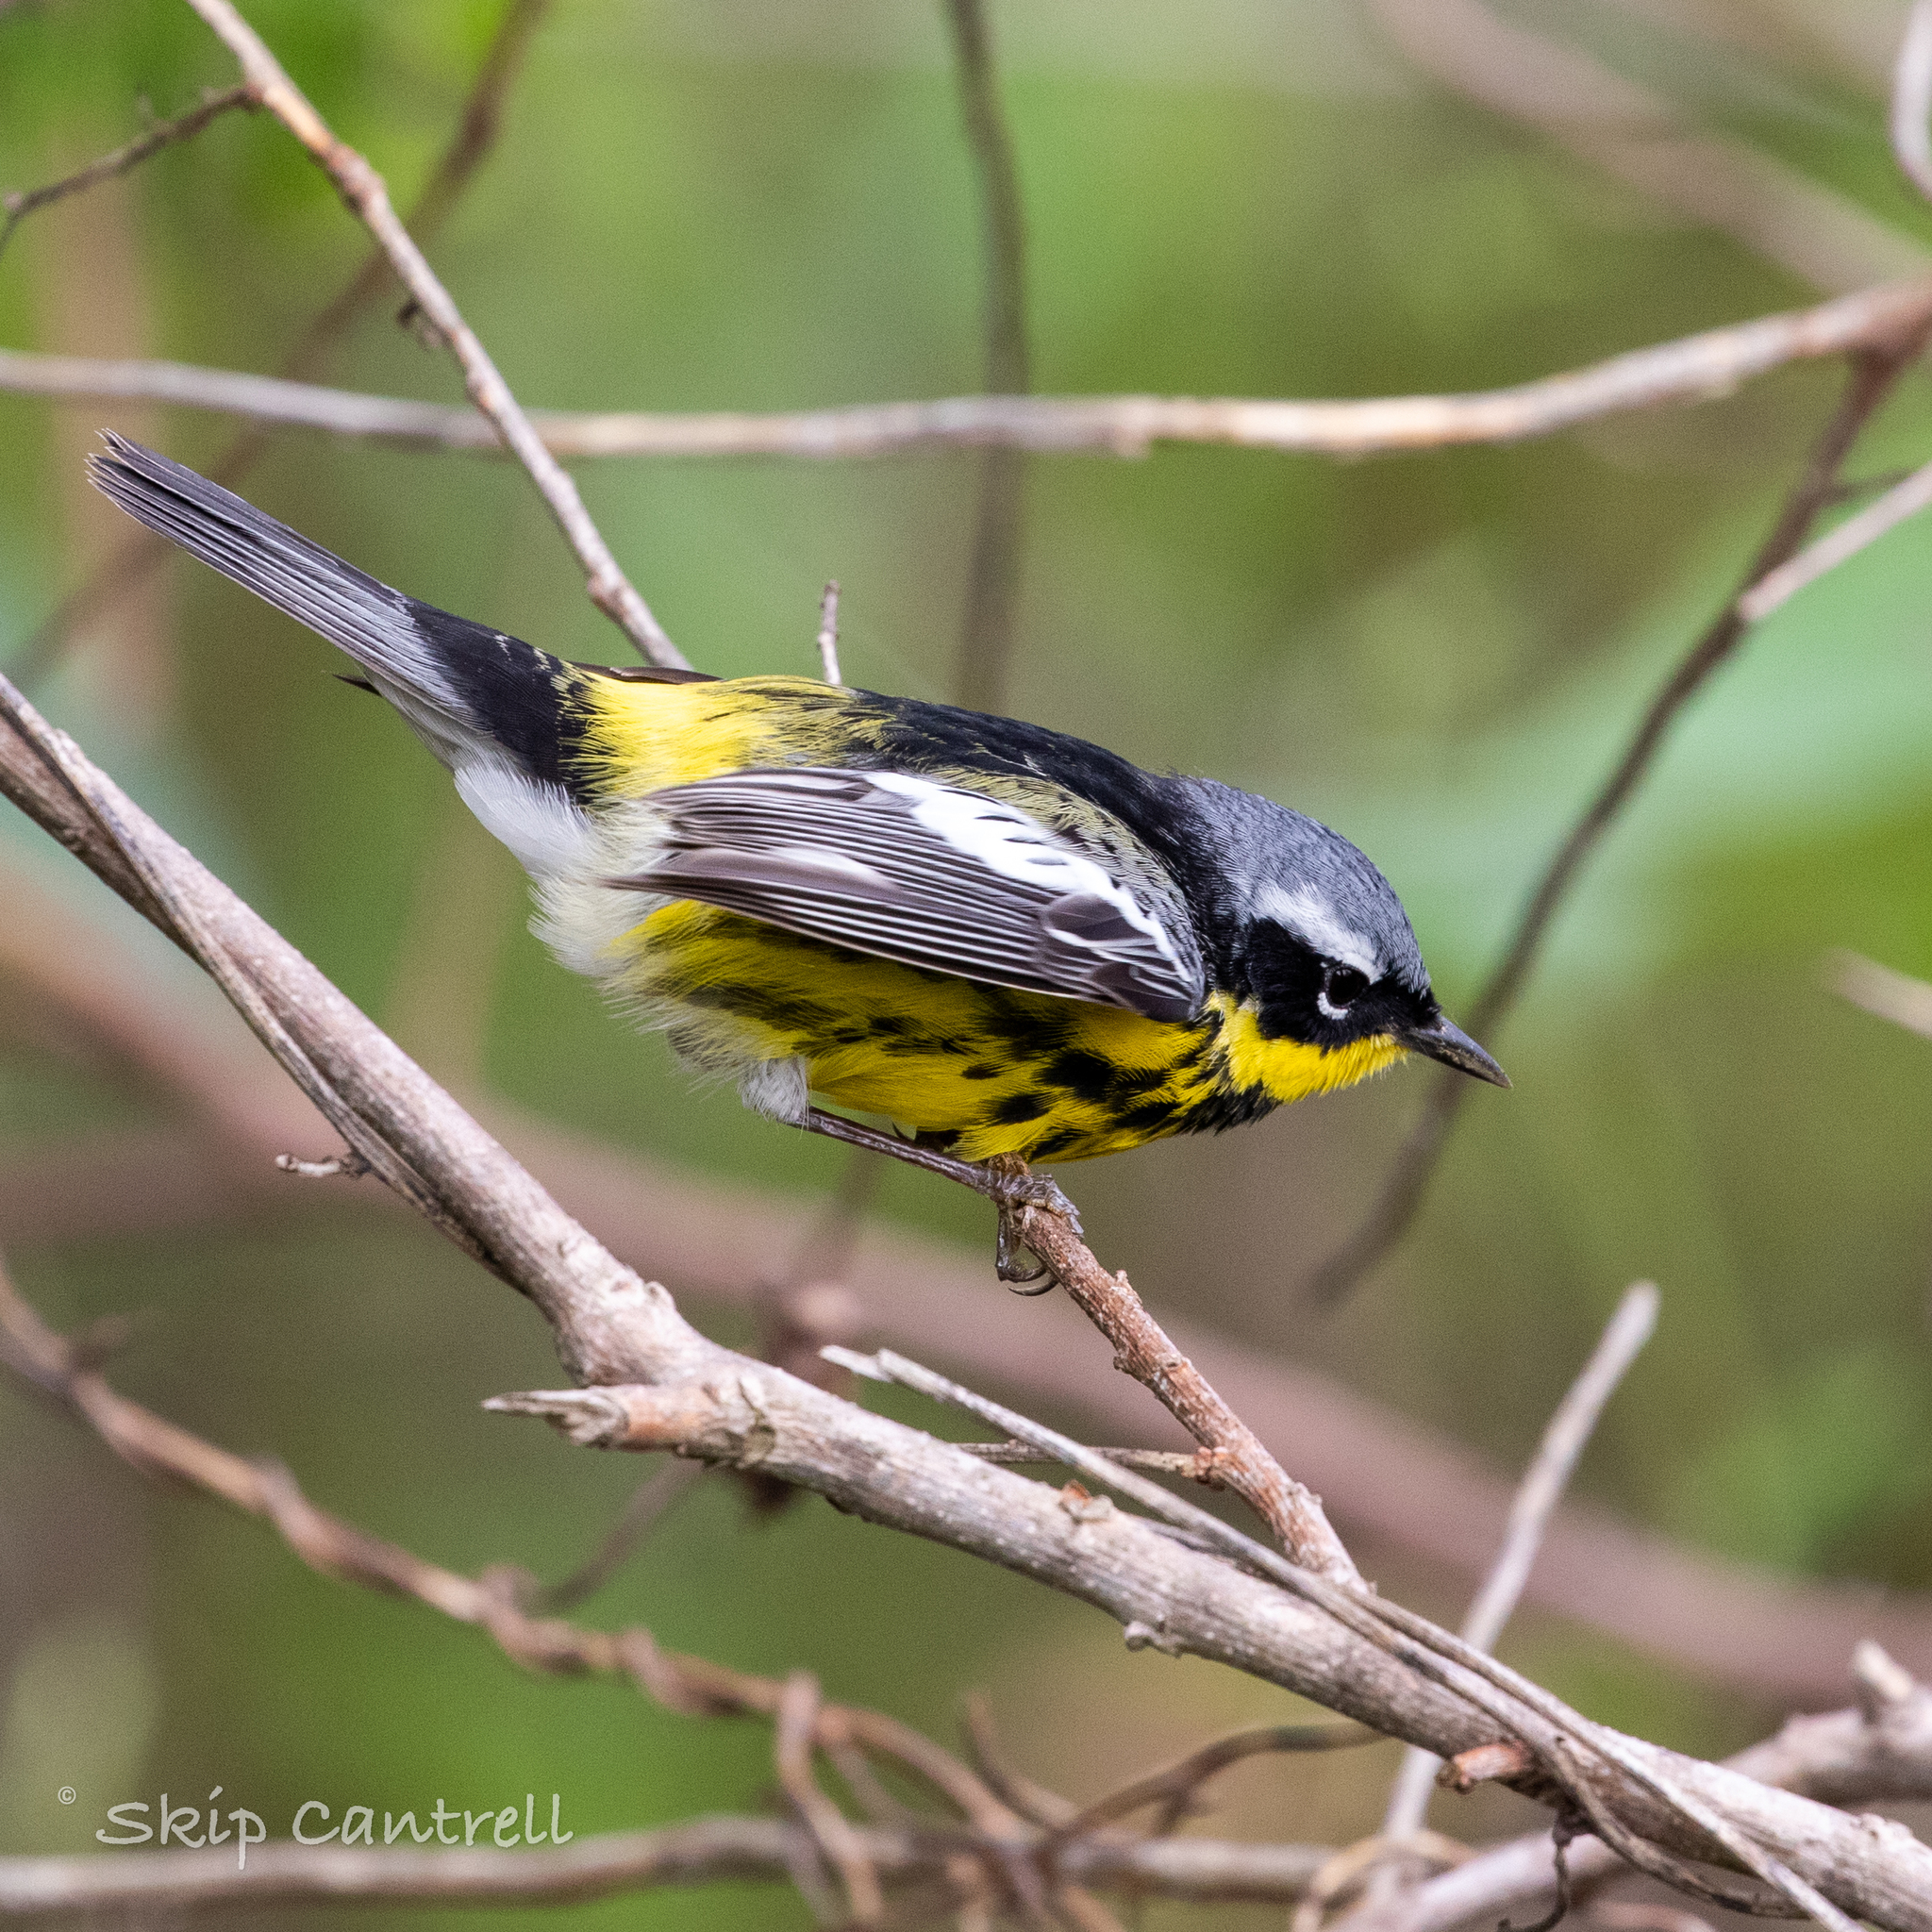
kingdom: Animalia
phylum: Chordata
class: Aves
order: Passeriformes
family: Parulidae
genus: Setophaga
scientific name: Setophaga magnolia
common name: Magnolia warbler
